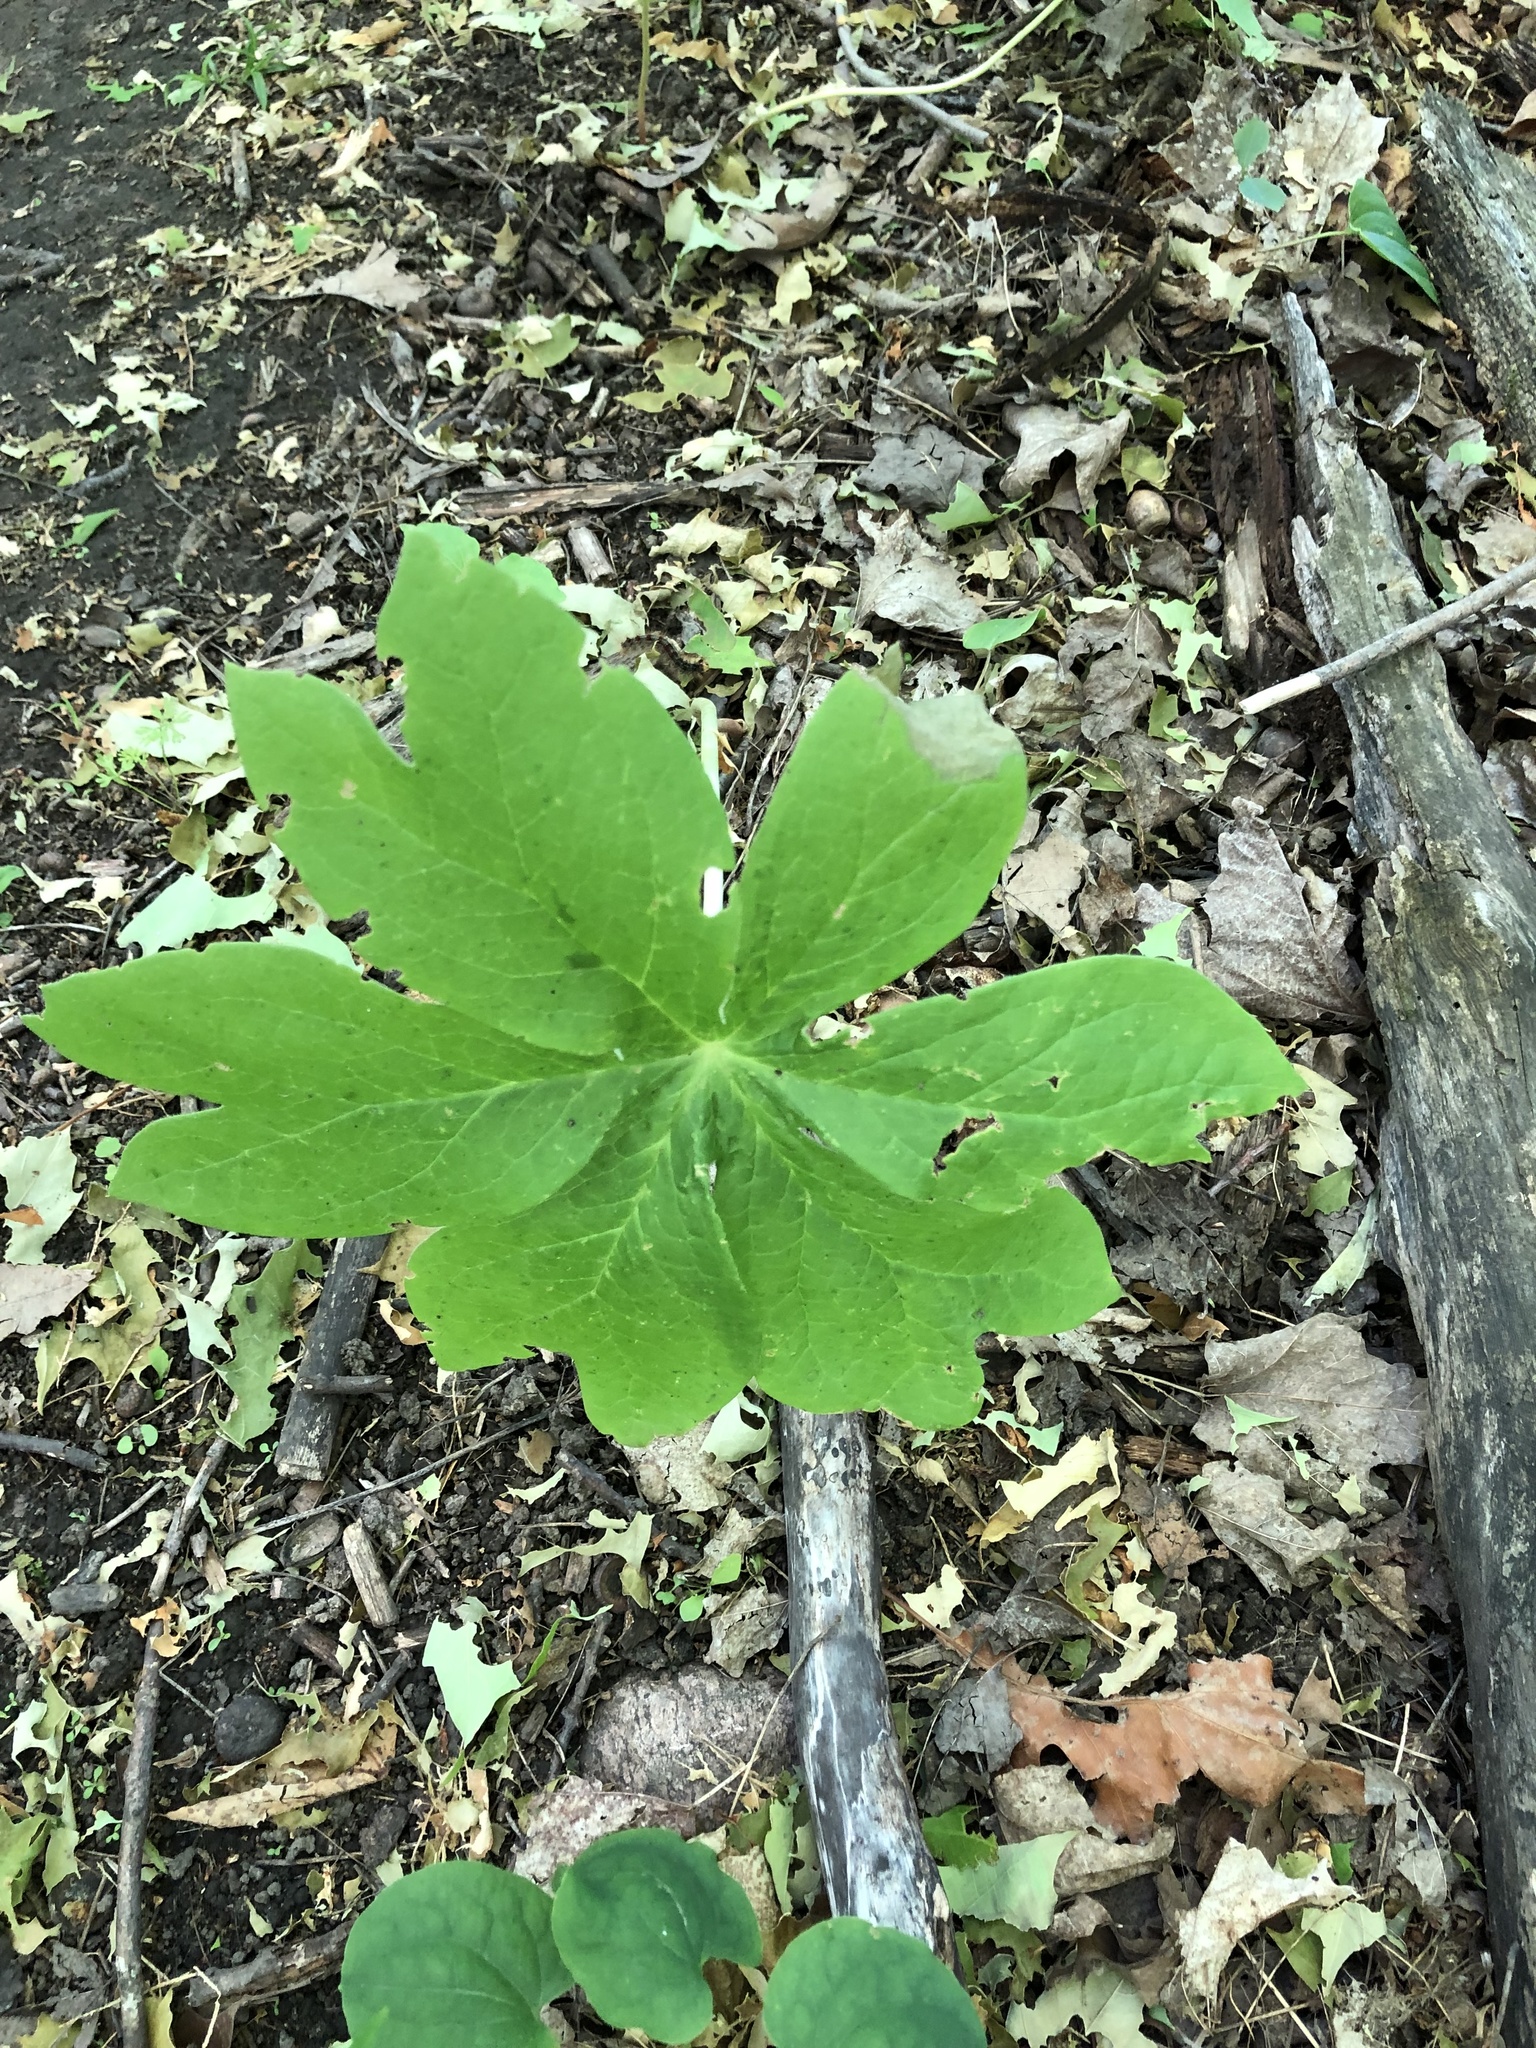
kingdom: Plantae
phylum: Tracheophyta
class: Magnoliopsida
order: Ranunculales
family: Berberidaceae
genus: Podophyllum
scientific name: Podophyllum peltatum
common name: Wild mandrake
